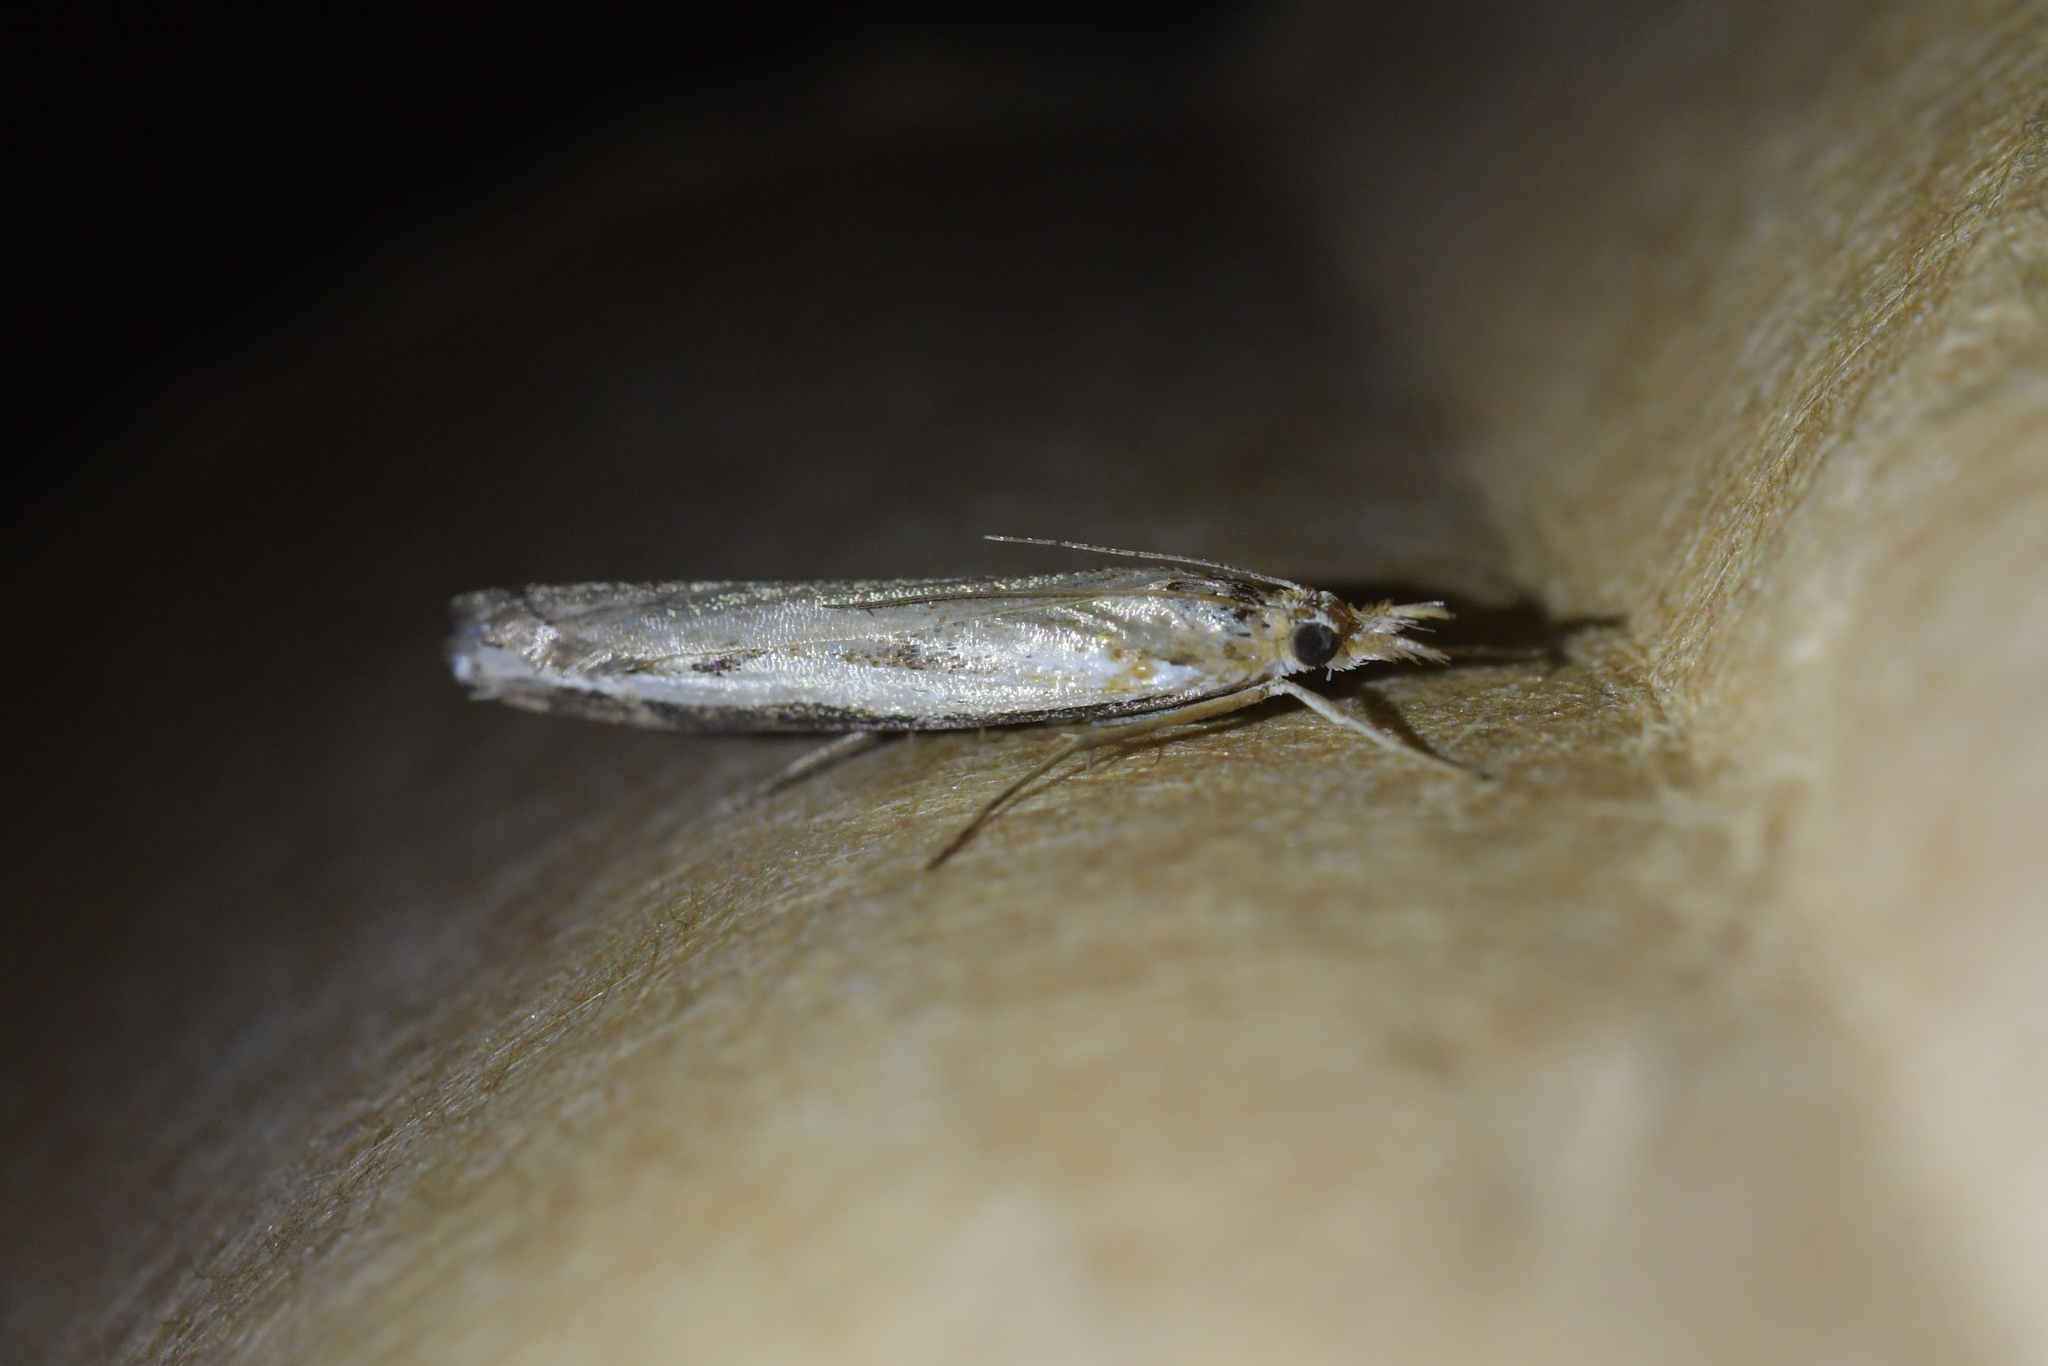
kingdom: Animalia
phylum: Arthropoda
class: Insecta
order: Lepidoptera
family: Crambidae
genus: Orocrambus
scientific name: Orocrambus flexuosellus
